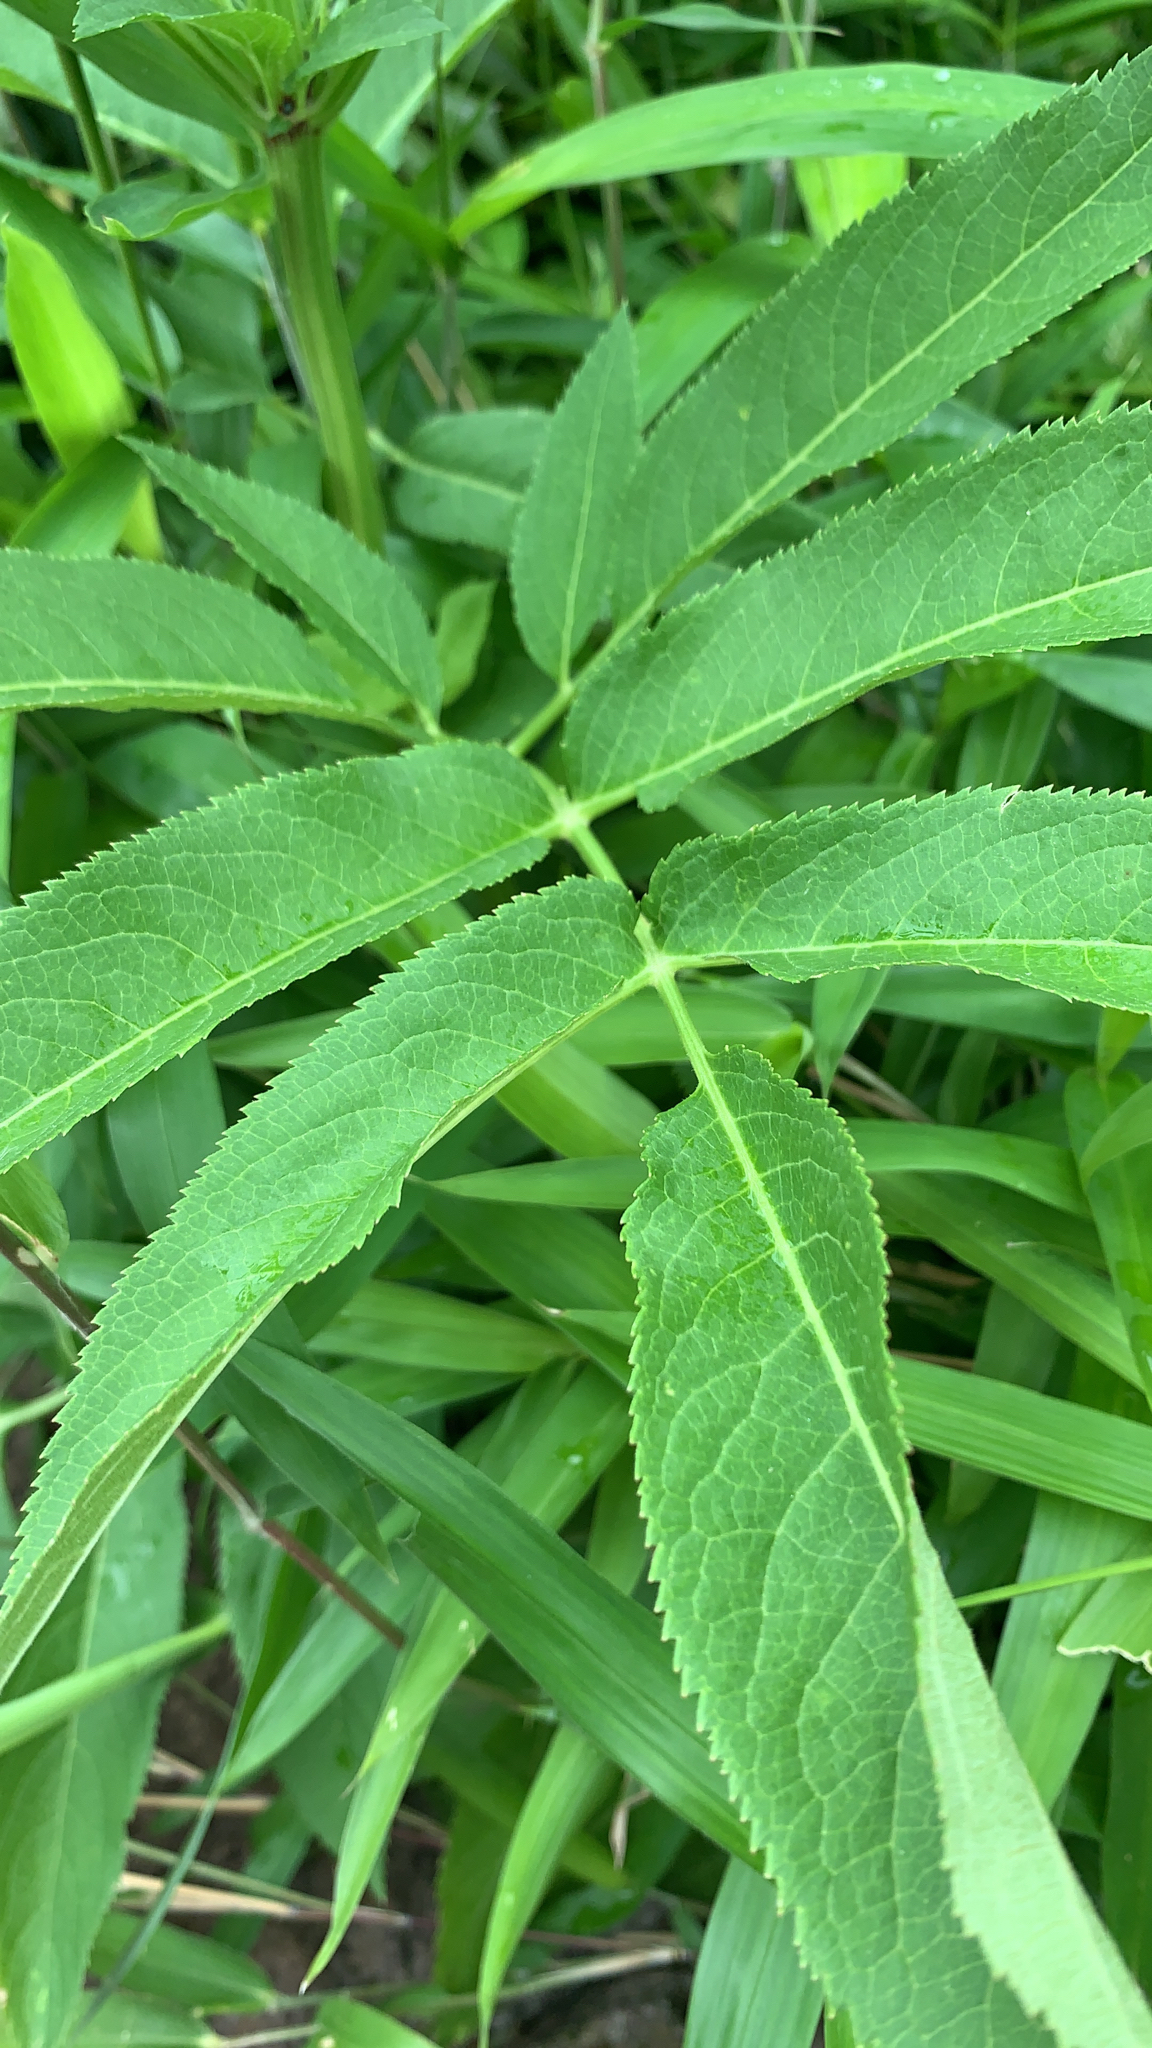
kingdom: Plantae
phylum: Tracheophyta
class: Magnoliopsida
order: Dipsacales
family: Viburnaceae
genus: Sambucus
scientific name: Sambucus ebulus
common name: Dwarf elder
